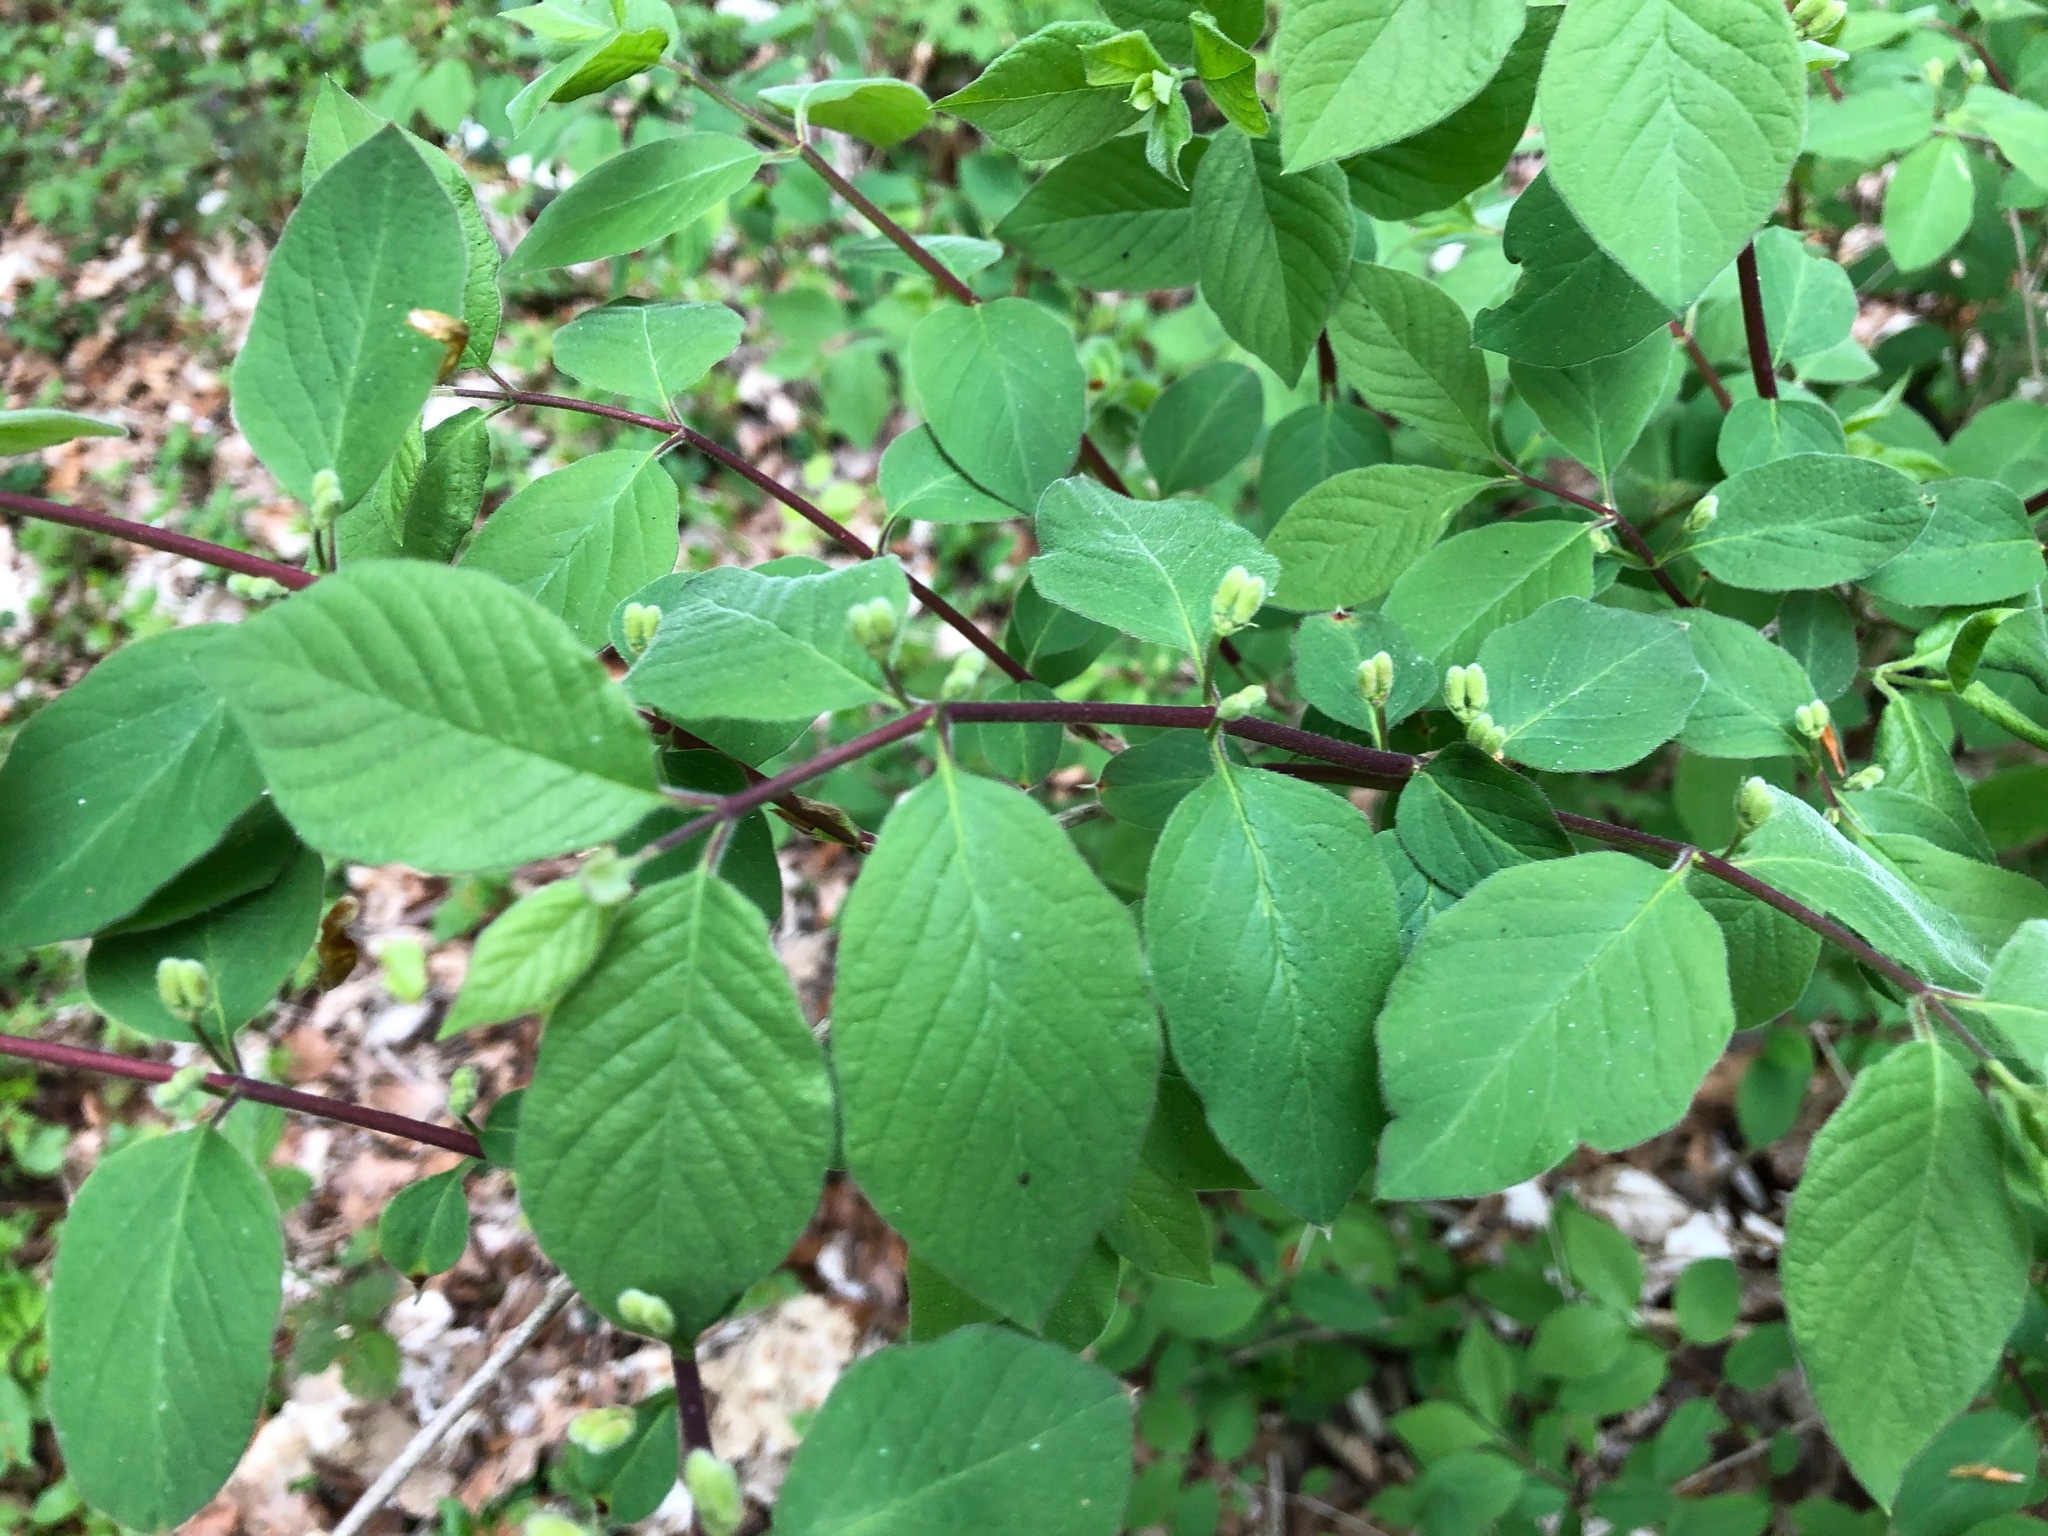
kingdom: Plantae
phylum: Tracheophyta
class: Magnoliopsida
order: Dipsacales
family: Caprifoliaceae
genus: Lonicera
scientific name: Lonicera xylosteum
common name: Fly honeysuckle
